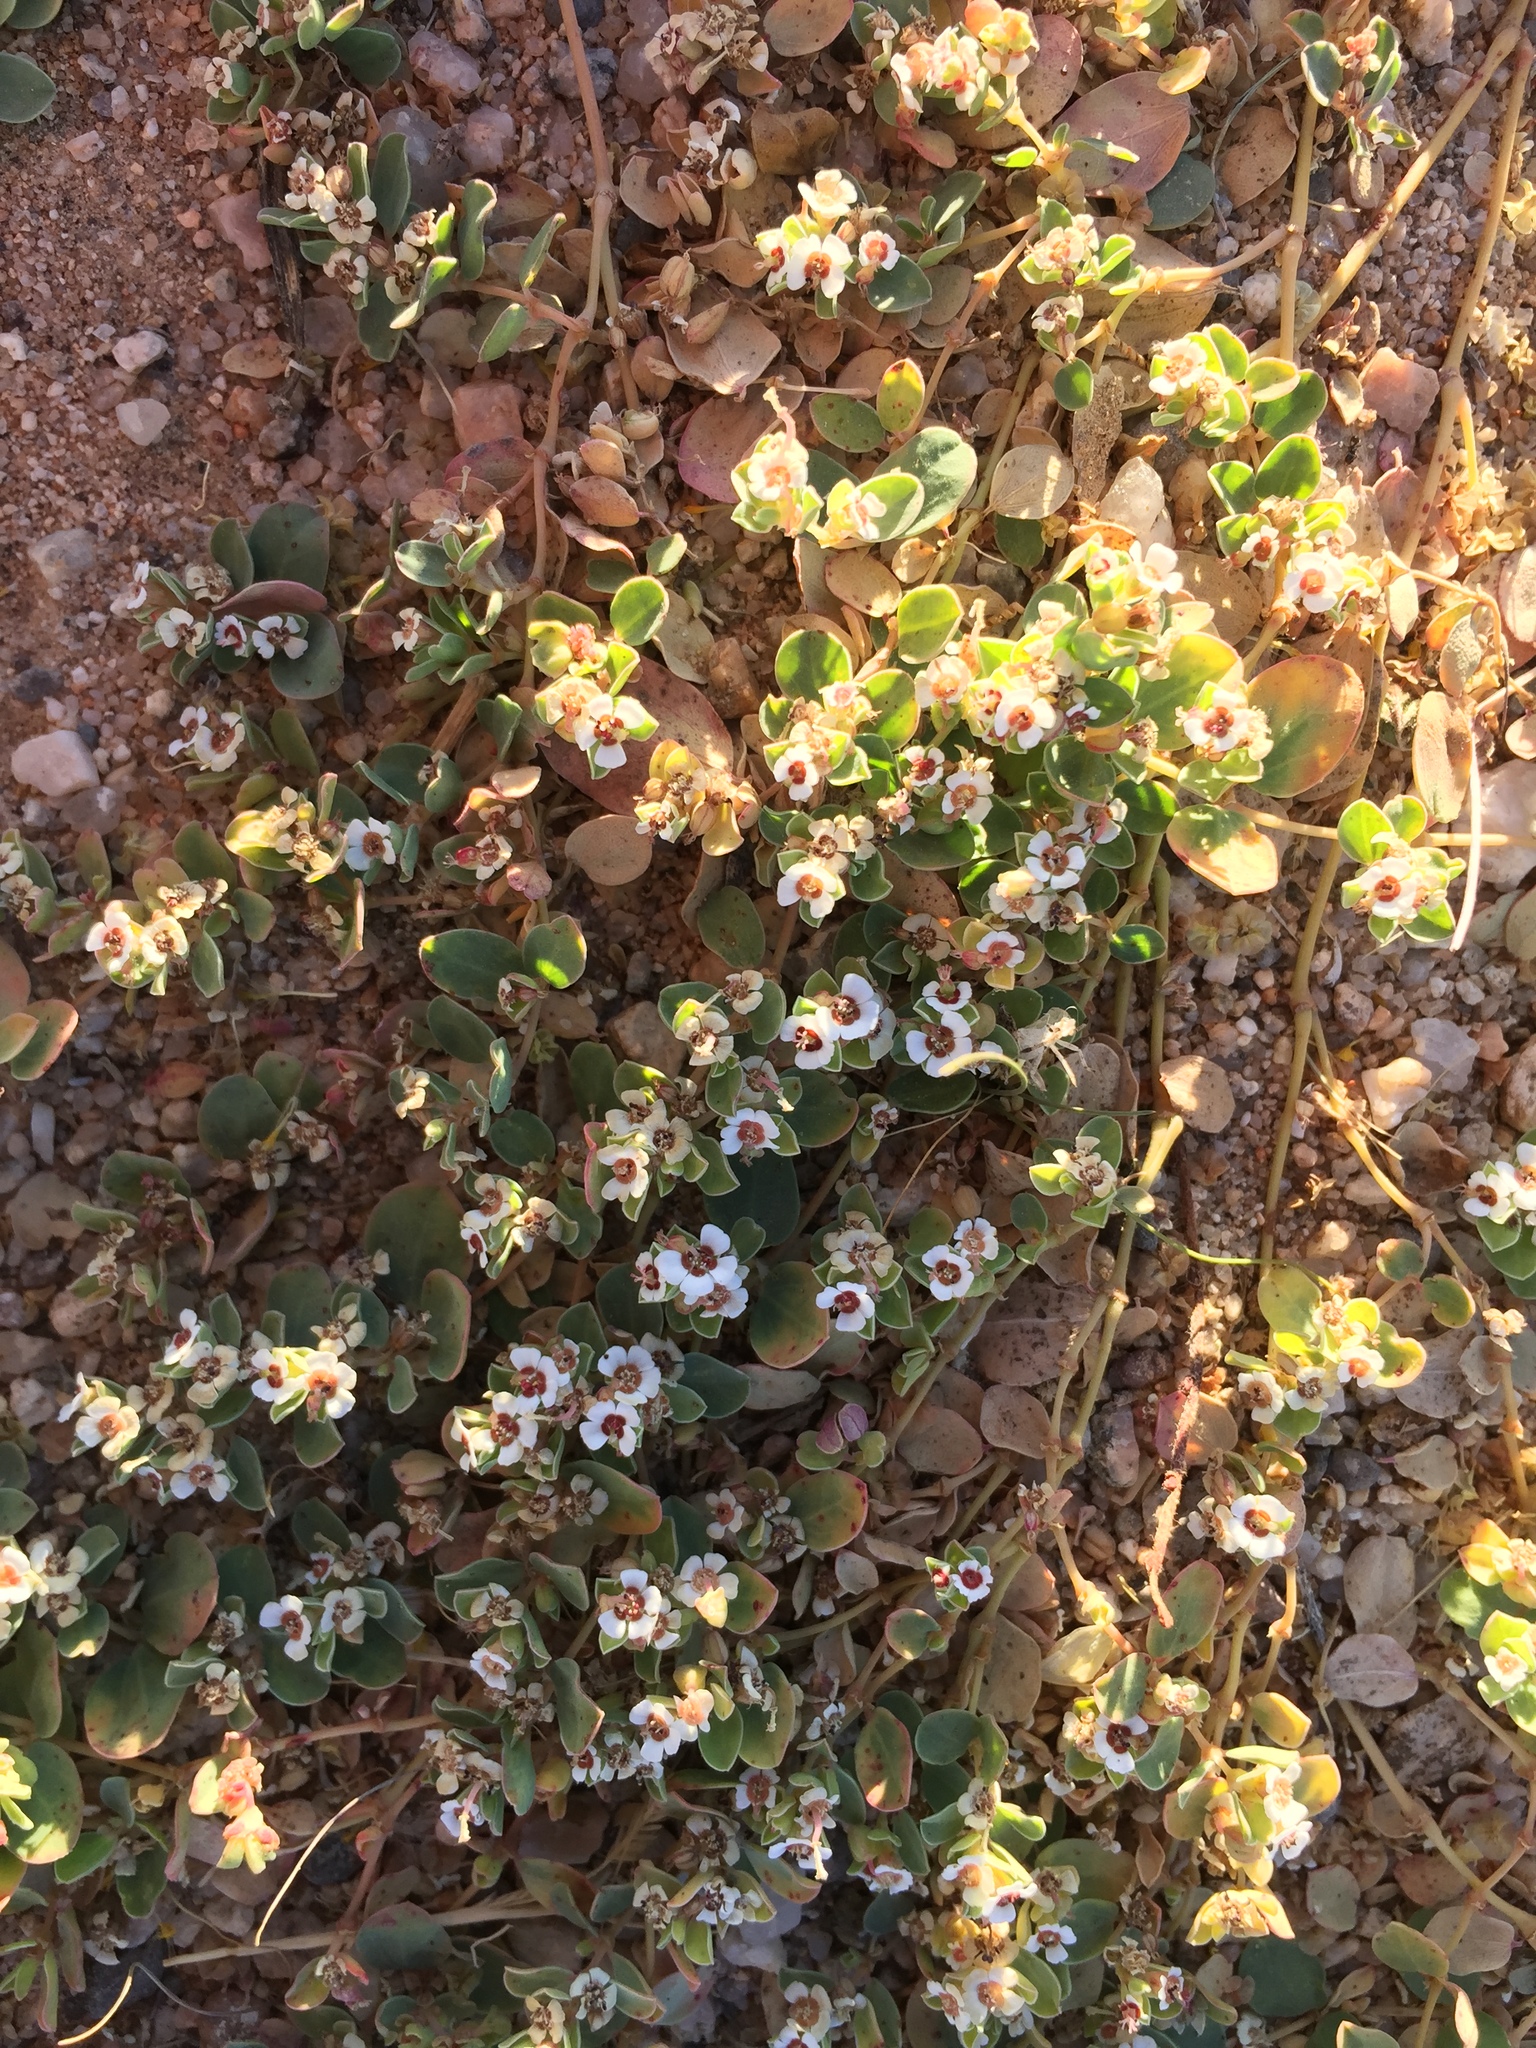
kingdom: Plantae
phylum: Tracheophyta
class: Magnoliopsida
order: Malpighiales
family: Euphorbiaceae
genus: Euphorbia
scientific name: Euphorbia albomarginata
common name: Whitemargin sandmat
